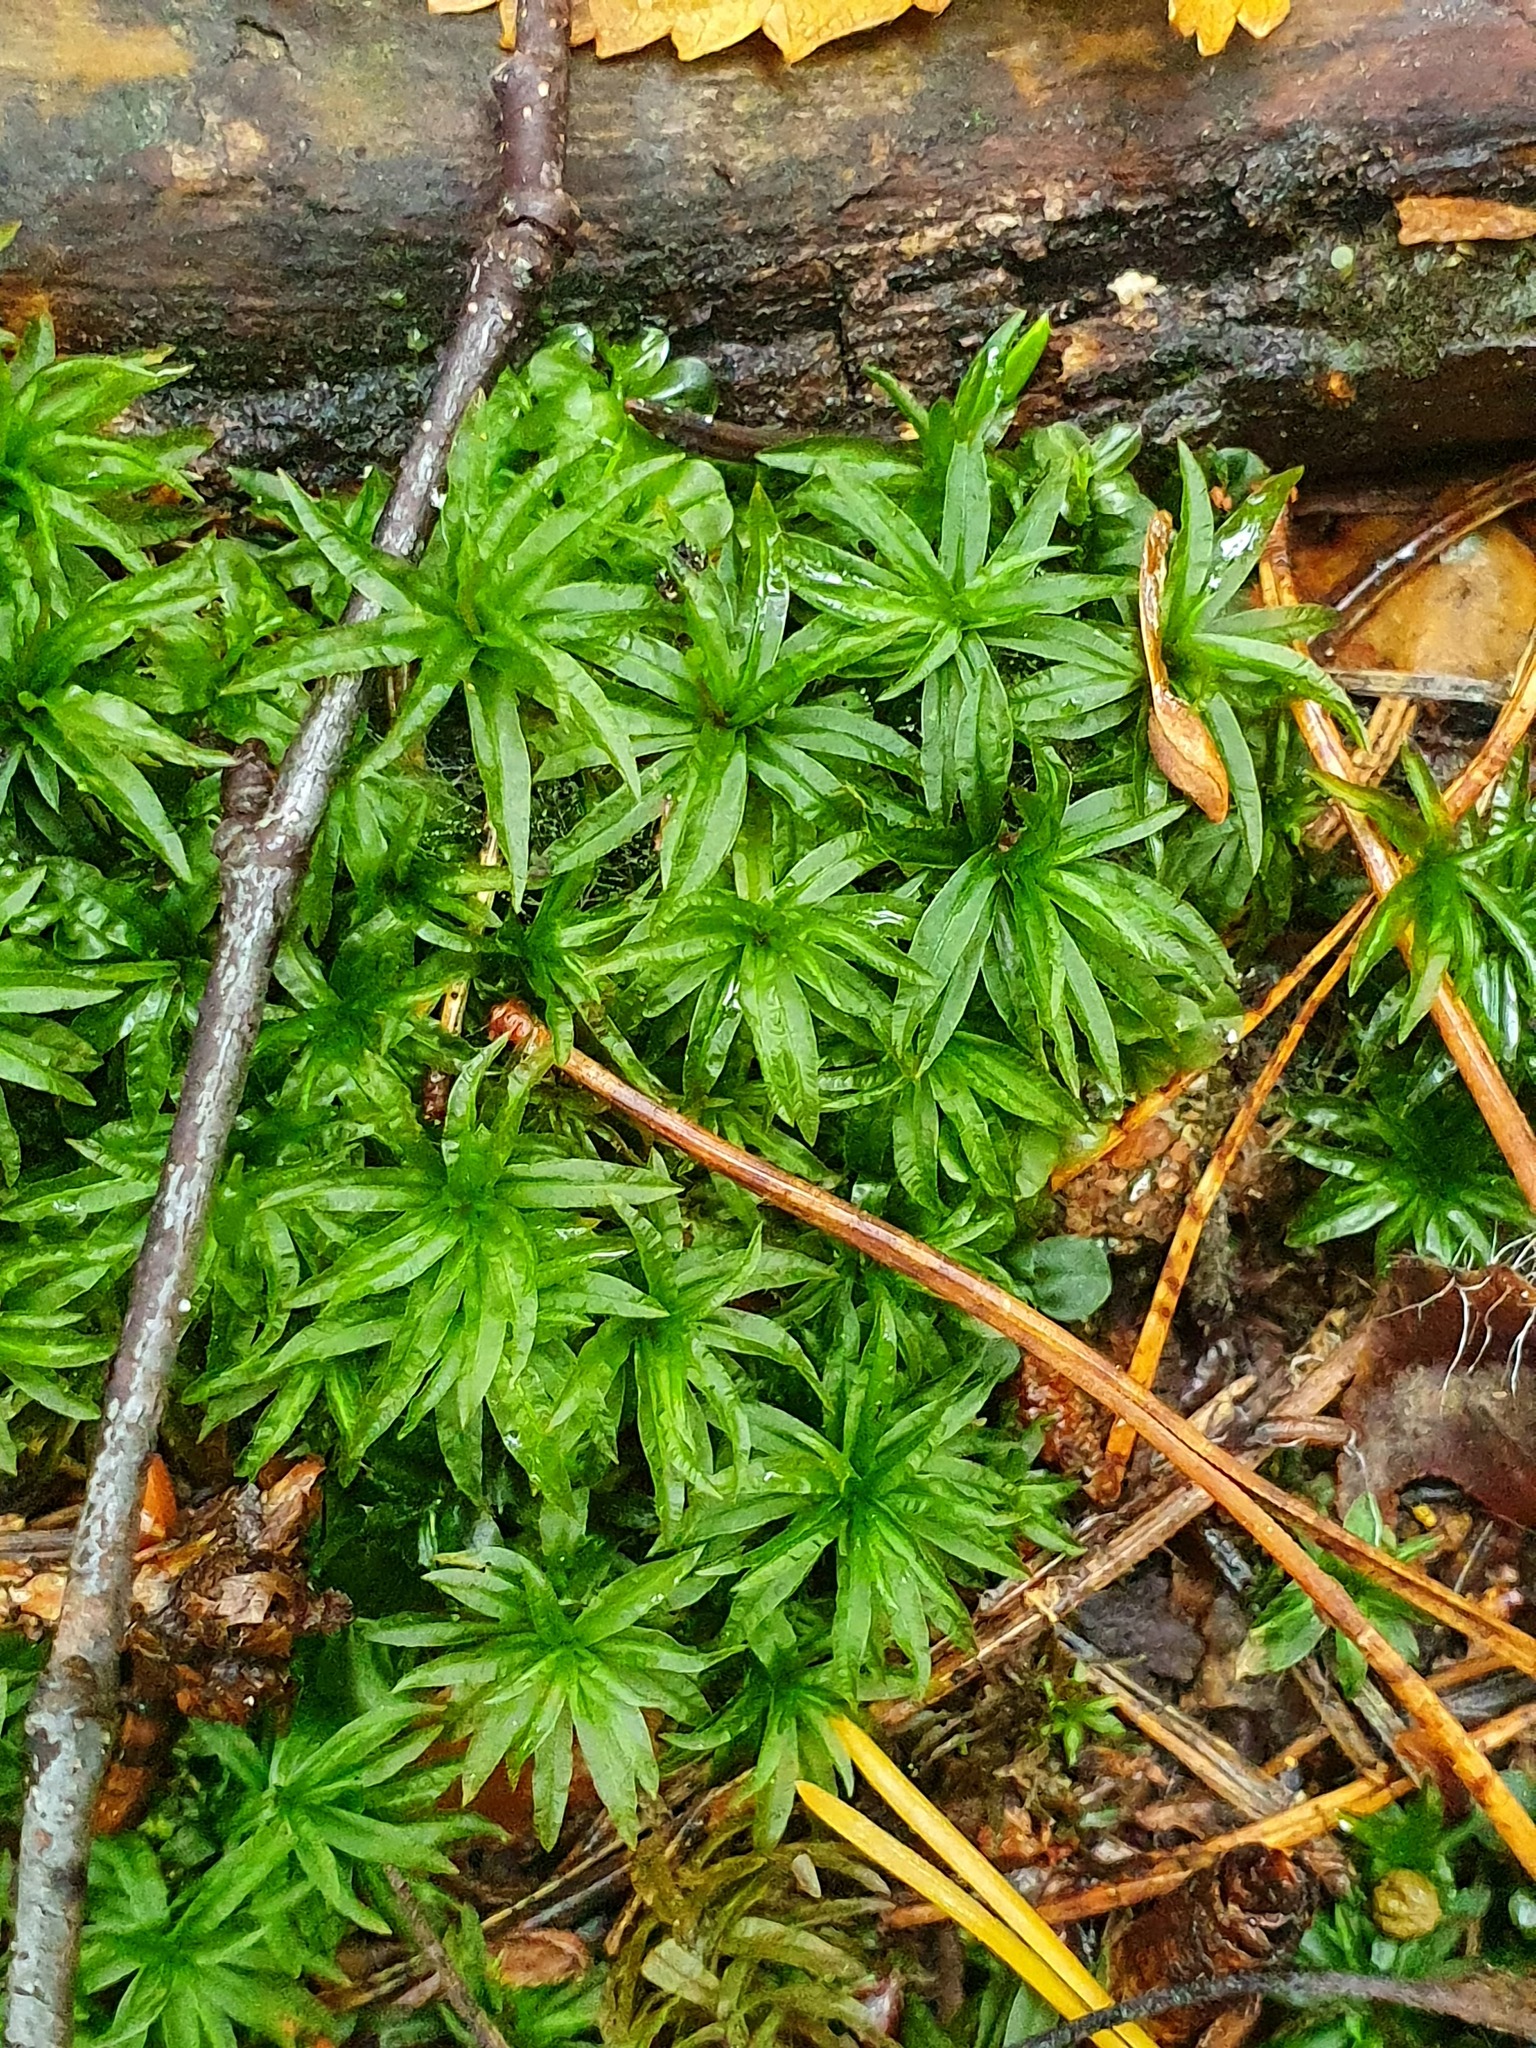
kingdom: Plantae
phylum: Bryophyta
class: Polytrichopsida
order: Polytrichales
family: Polytrichaceae
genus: Atrichum
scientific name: Atrichum undulatum
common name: Common smoothcap
